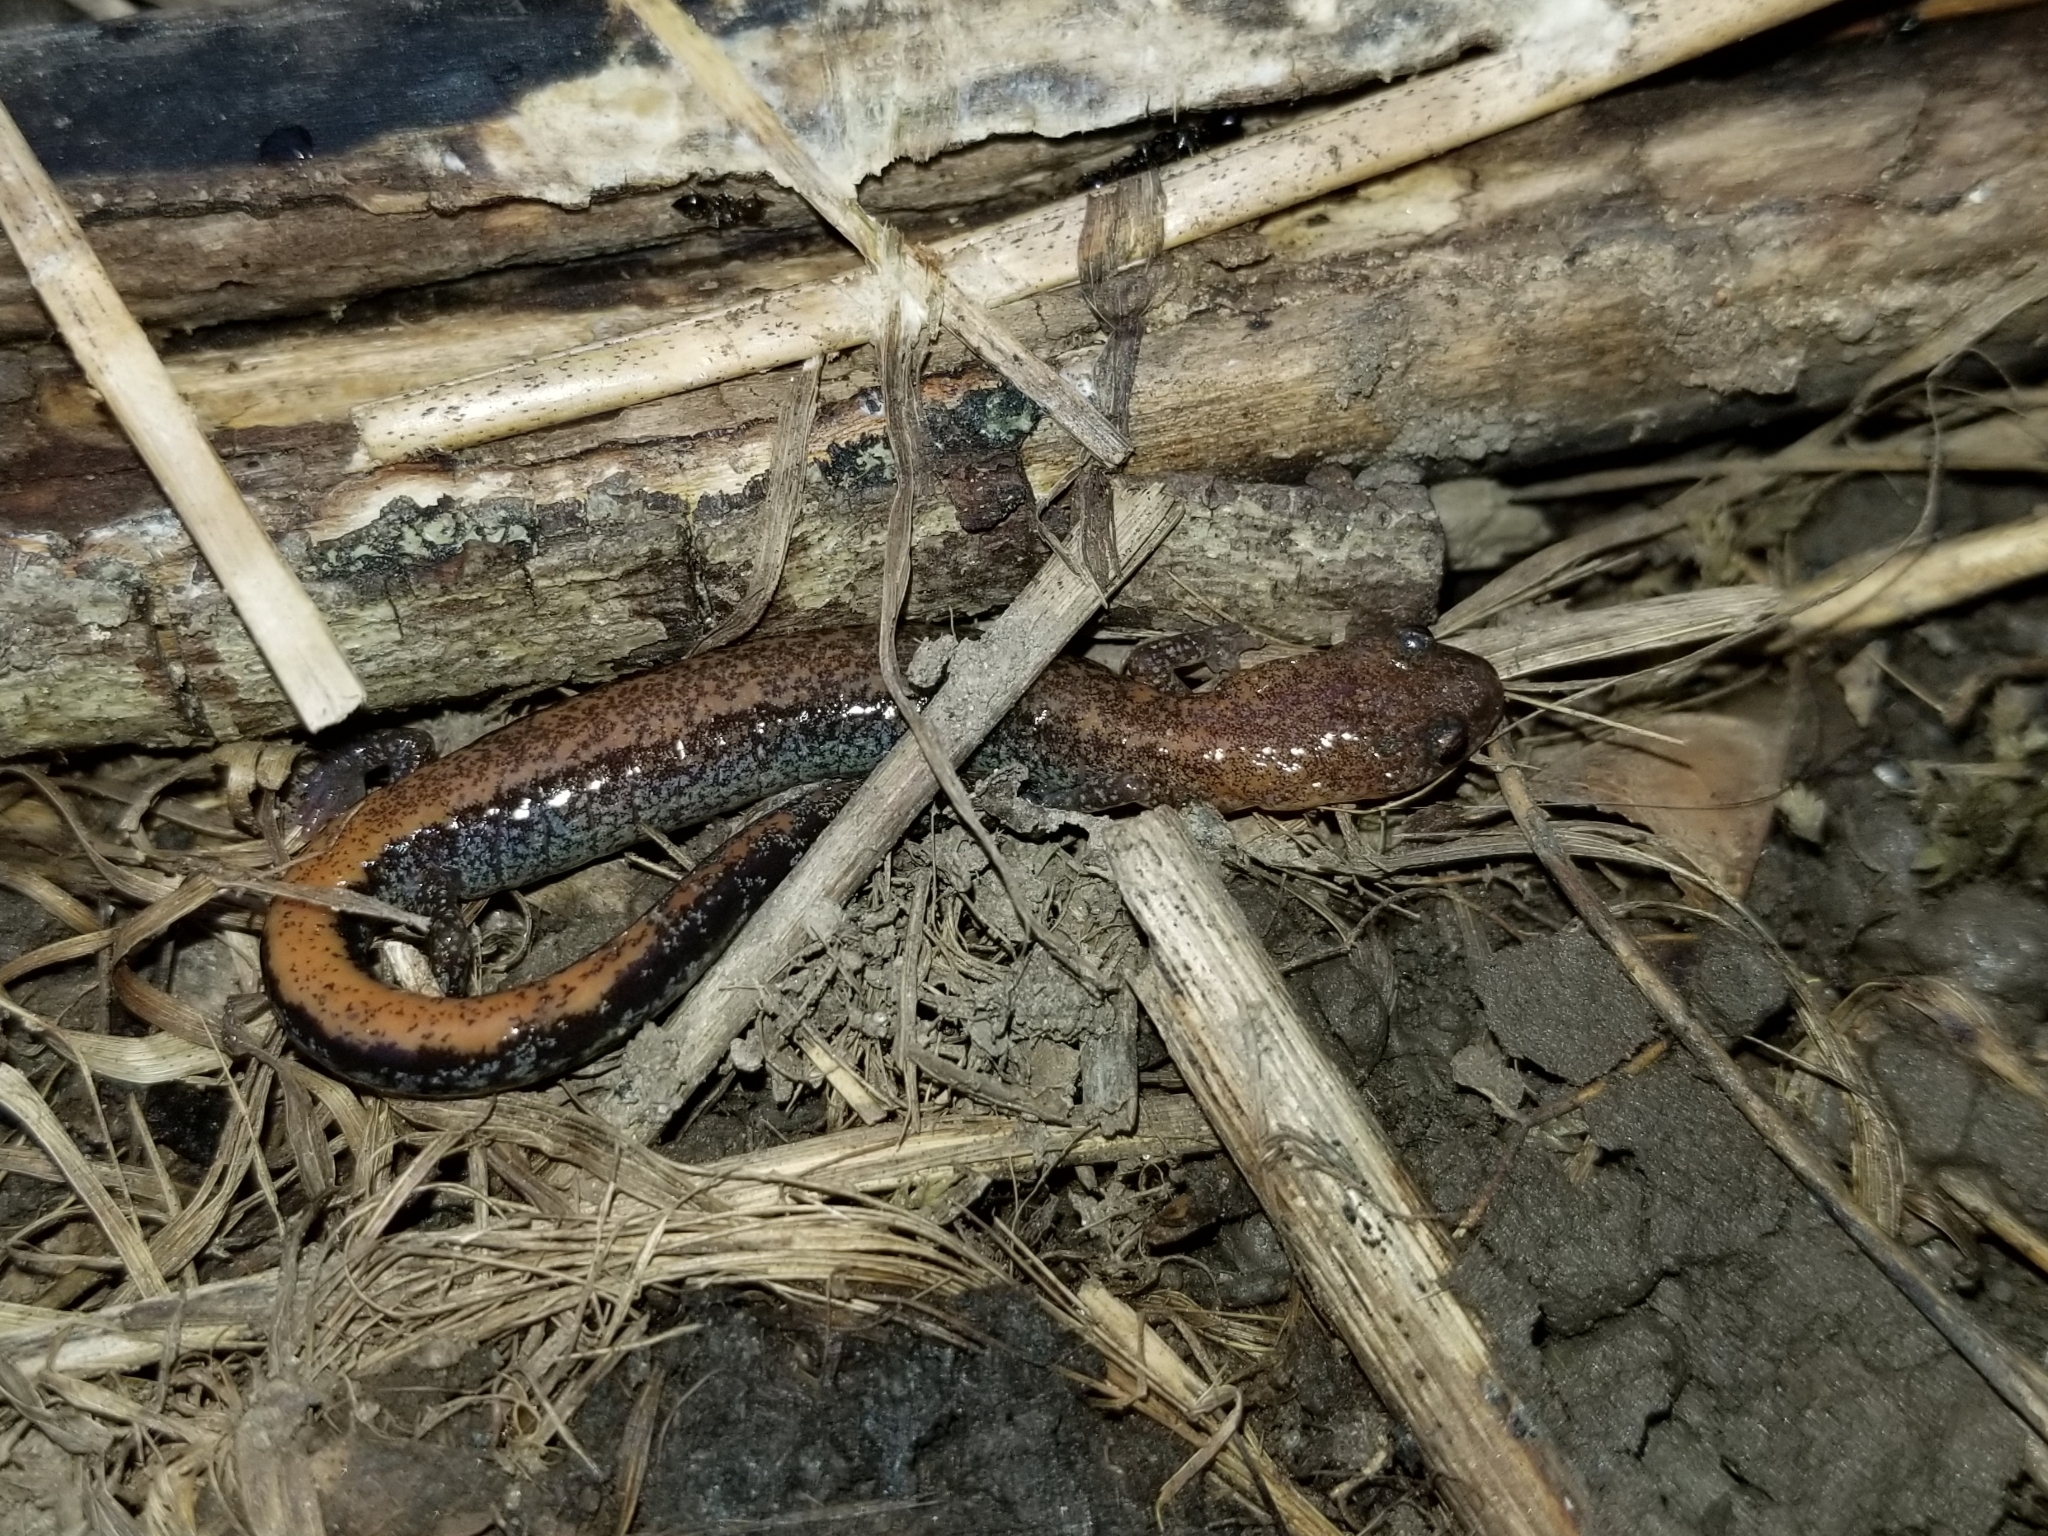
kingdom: Animalia
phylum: Chordata
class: Amphibia
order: Caudata
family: Plethodontidae
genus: Plethodon
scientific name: Plethodon cinereus
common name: Redback salamander
